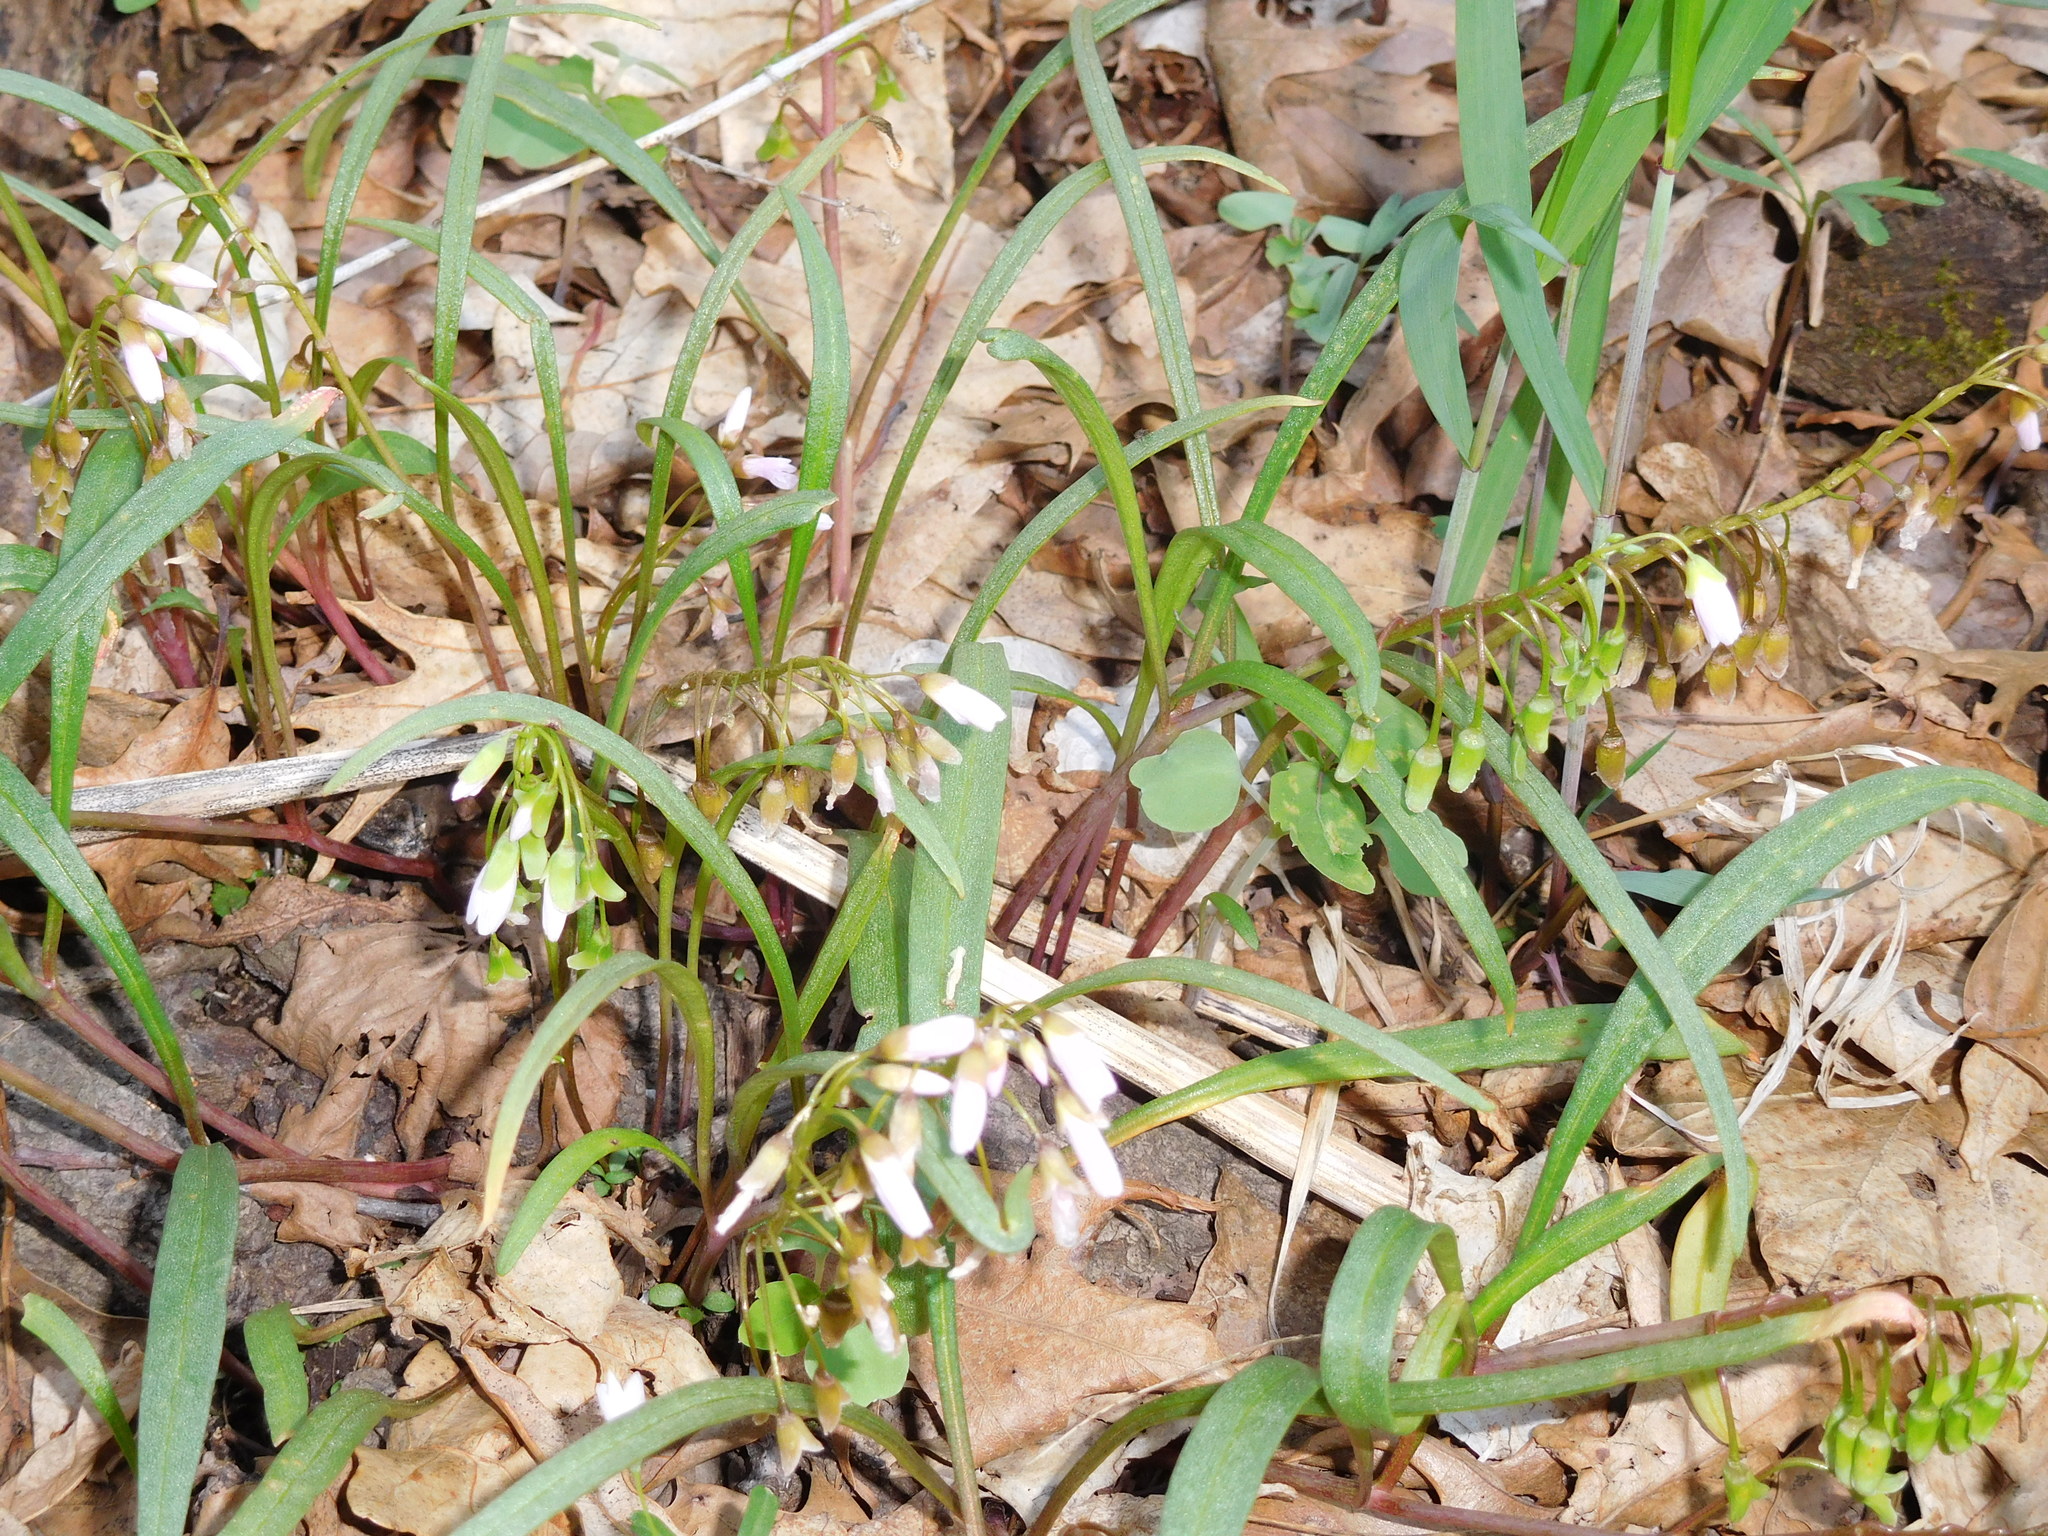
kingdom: Plantae
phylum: Tracheophyta
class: Magnoliopsida
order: Caryophyllales
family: Montiaceae
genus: Claytonia
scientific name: Claytonia virginica
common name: Virginia springbeauty
